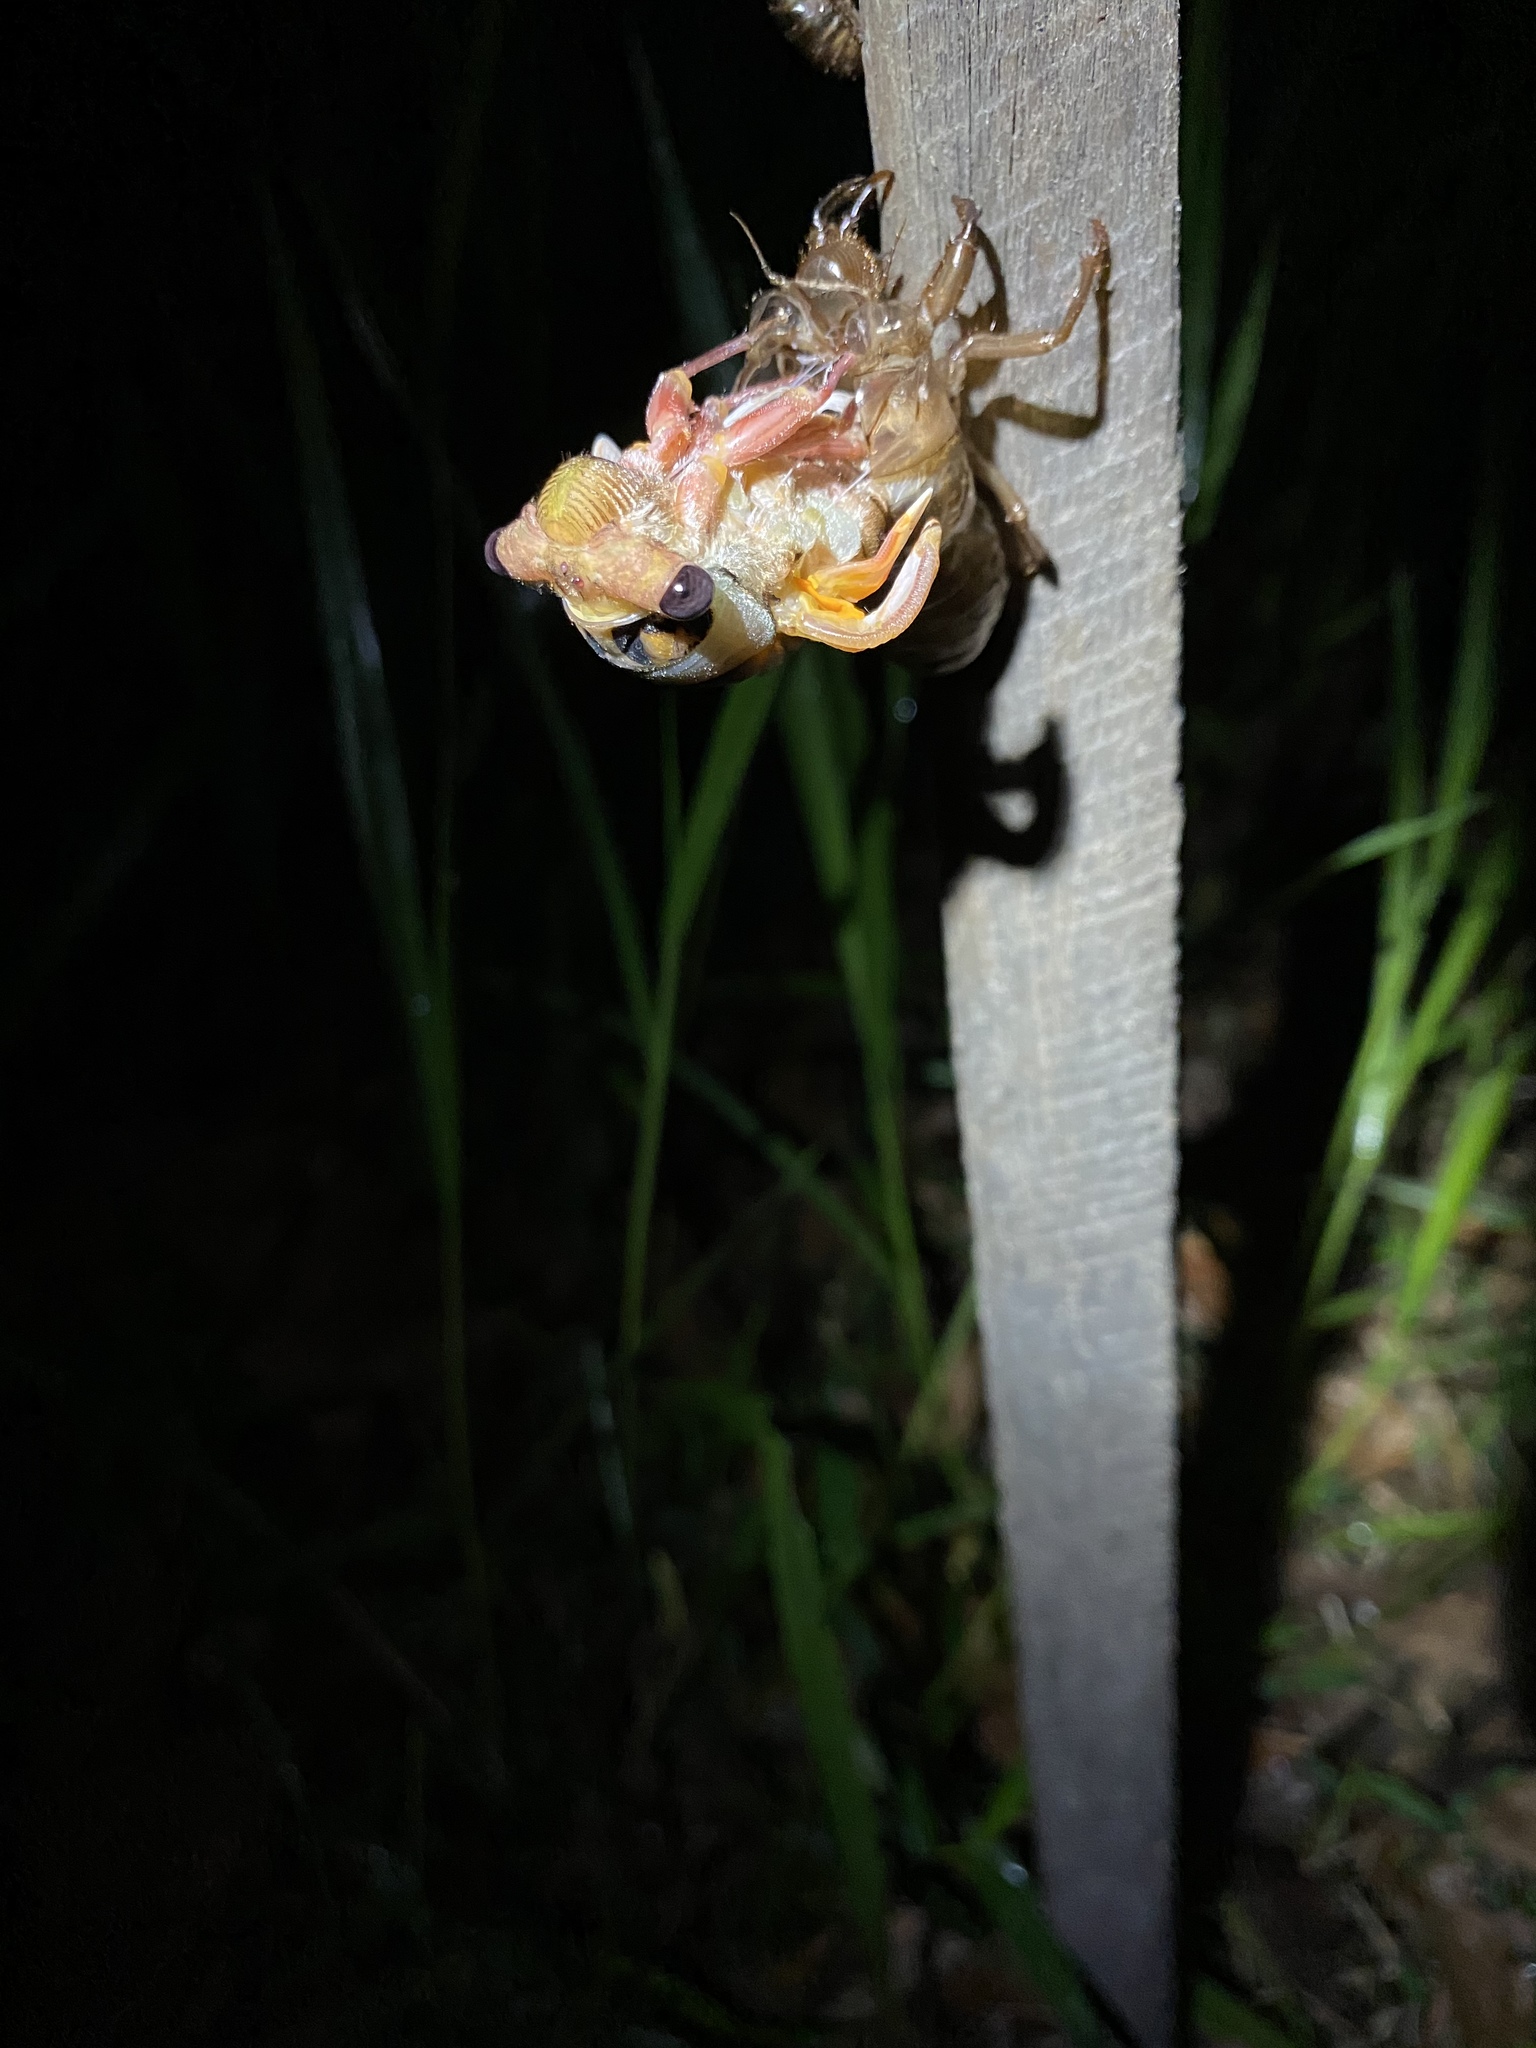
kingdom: Animalia
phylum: Arthropoda
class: Insecta
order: Hemiptera
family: Cicadidae
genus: Macrotristria
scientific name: Macrotristria godingi
